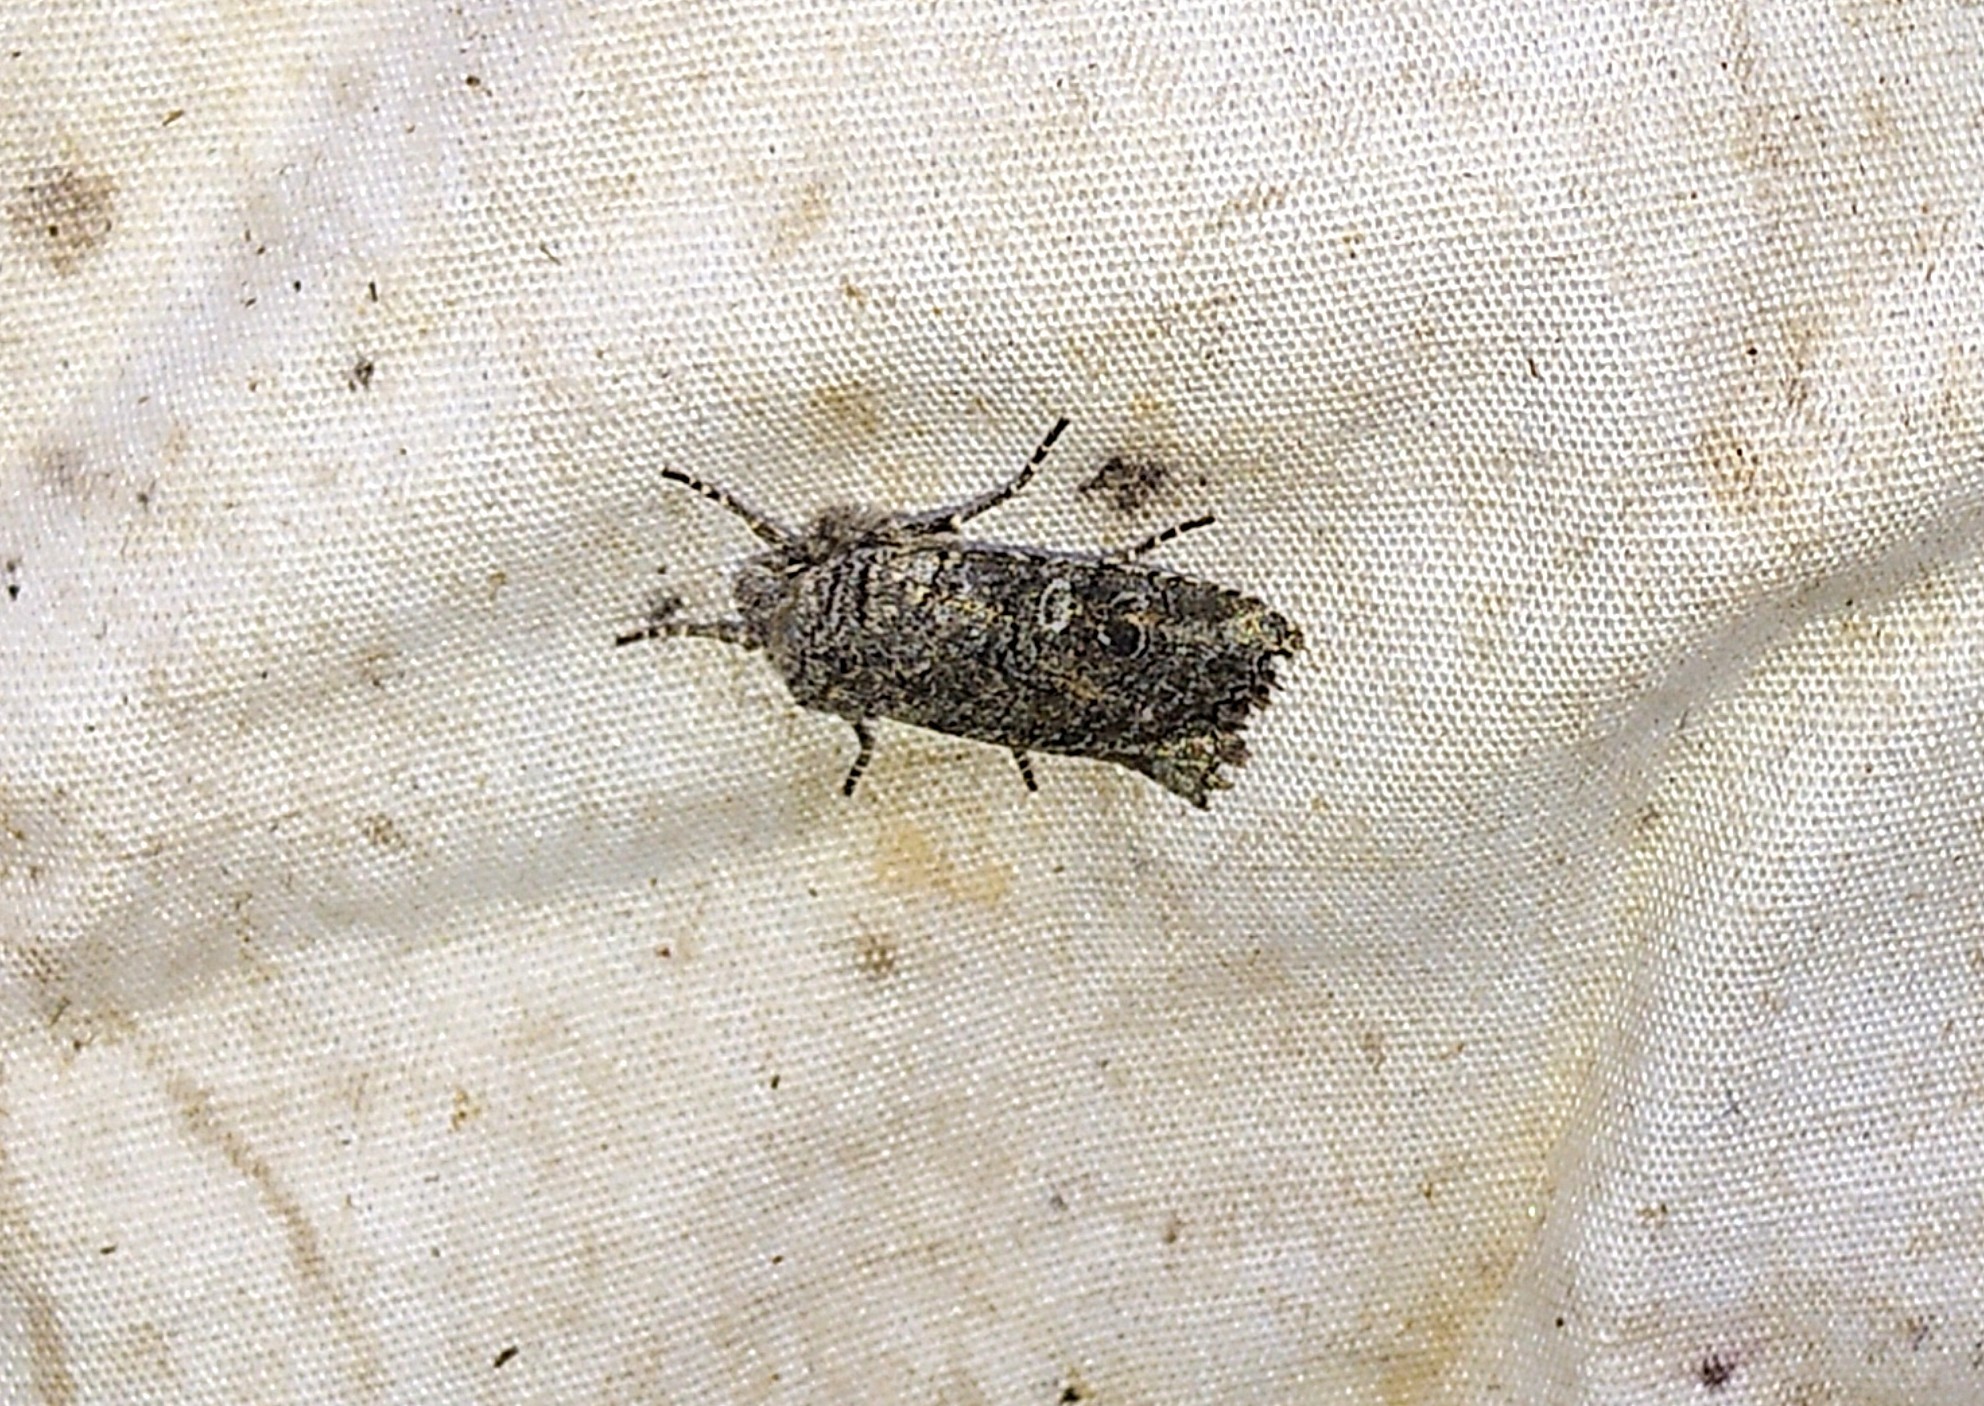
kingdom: Animalia
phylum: Arthropoda
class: Insecta
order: Lepidoptera
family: Noctuidae
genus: Litholomia
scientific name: Litholomia napaea
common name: False pinion moth
